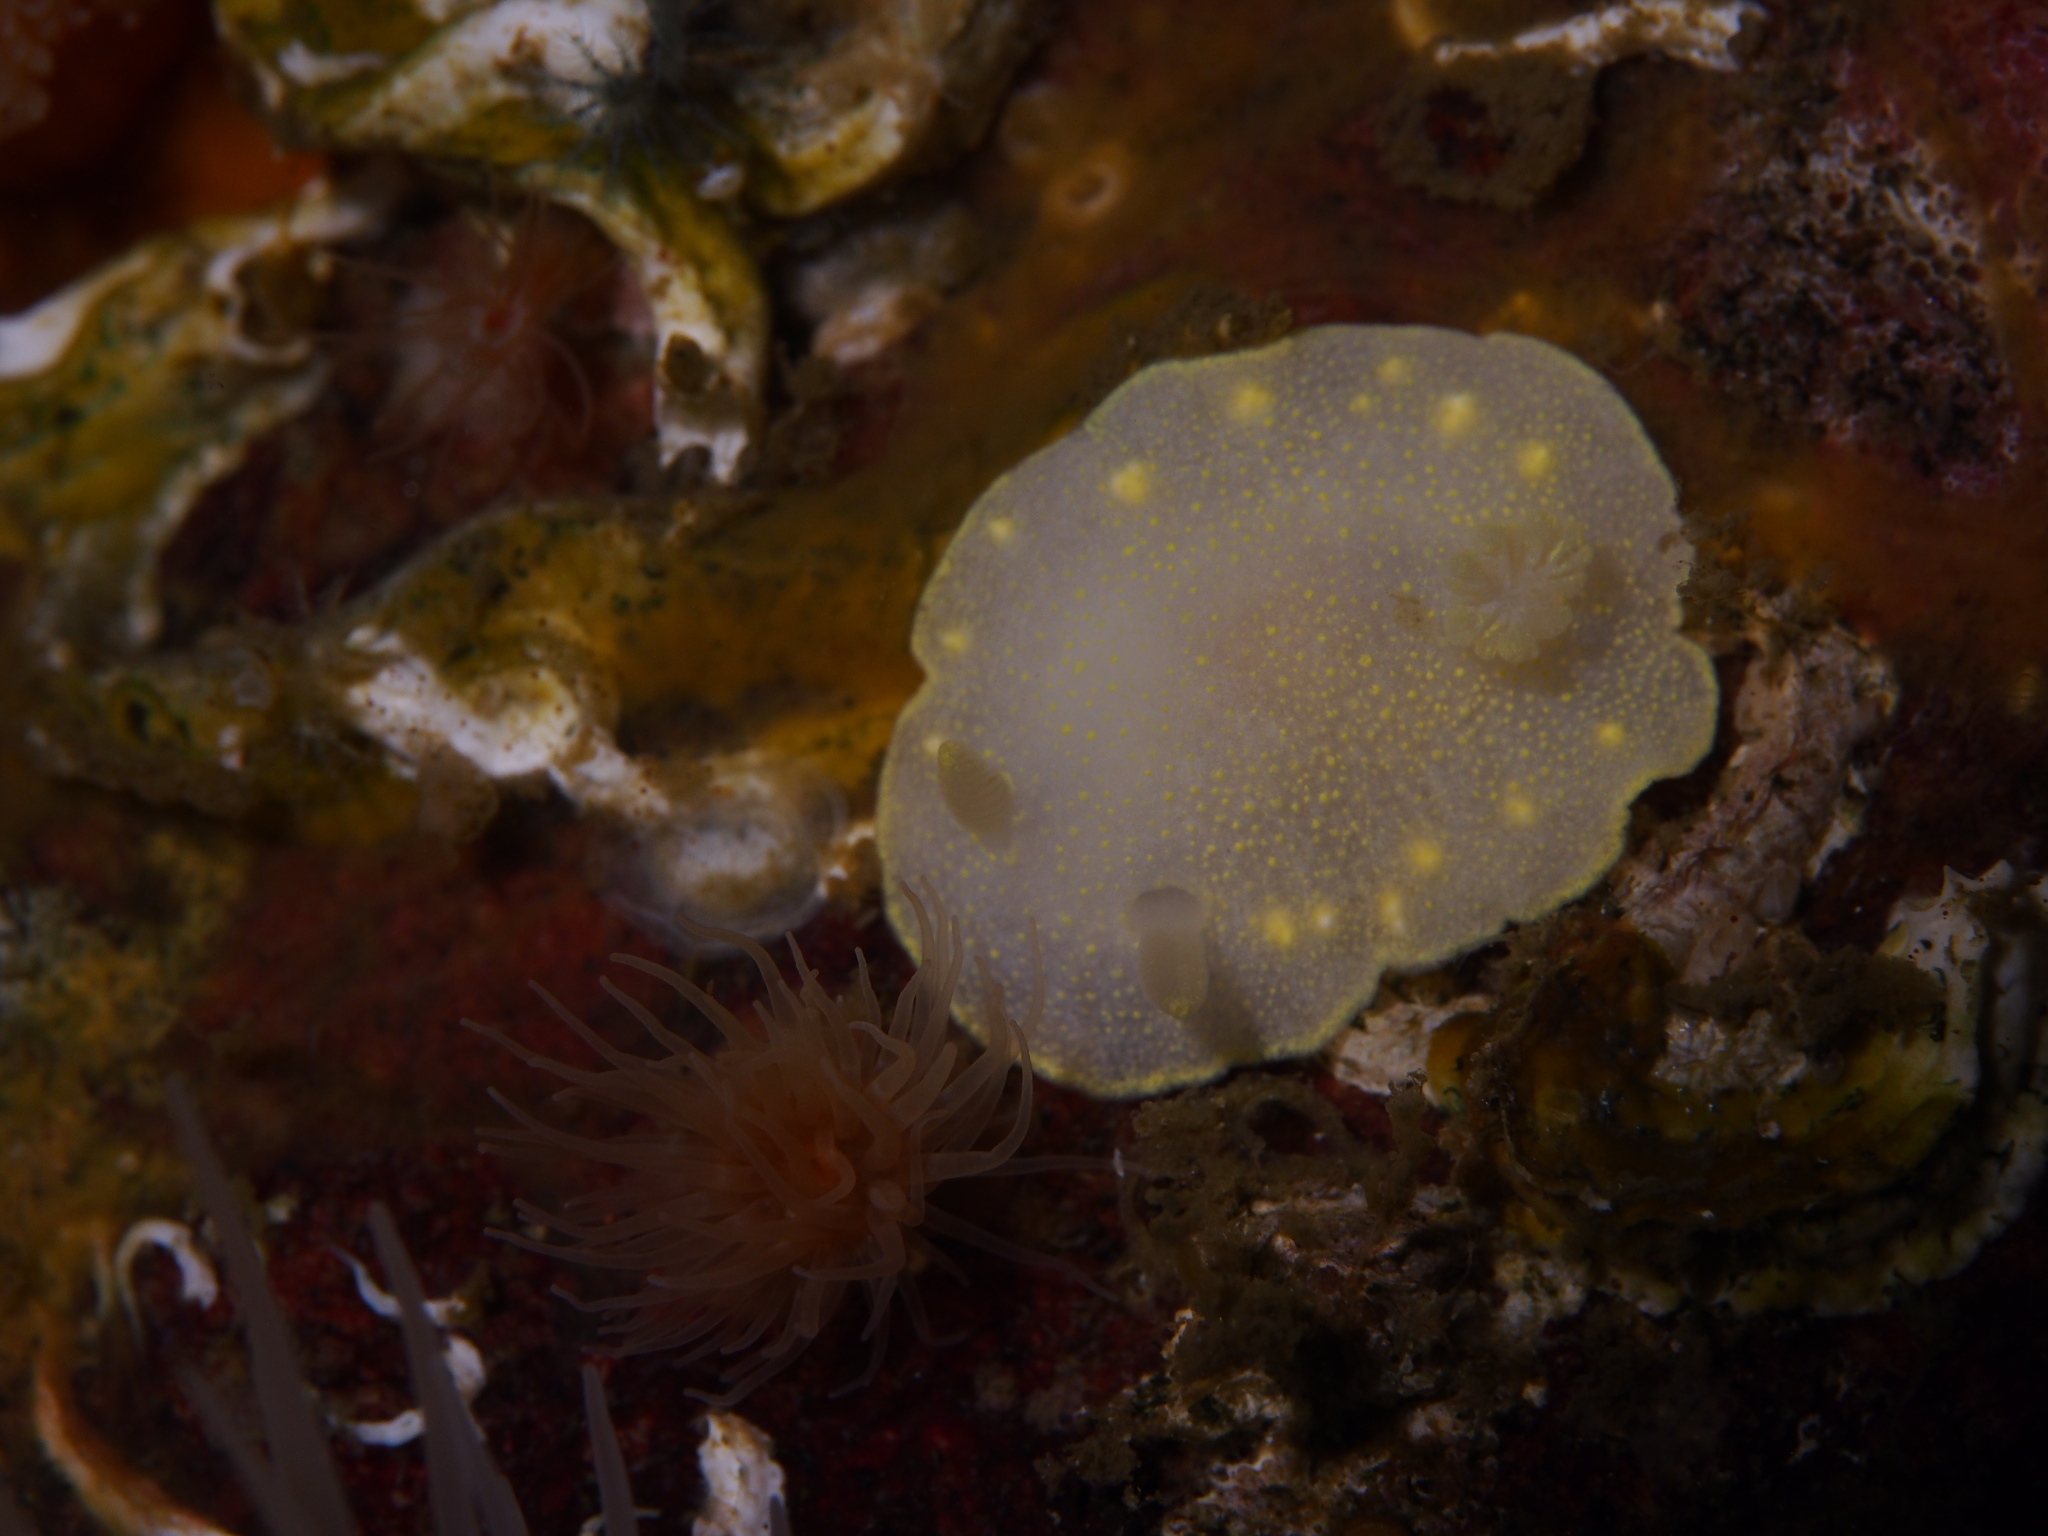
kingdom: Animalia
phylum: Mollusca
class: Gastropoda
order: Nudibranchia
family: Cadlinidae
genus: Cadlina
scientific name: Cadlina laevis
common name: White atlantic cadlina
